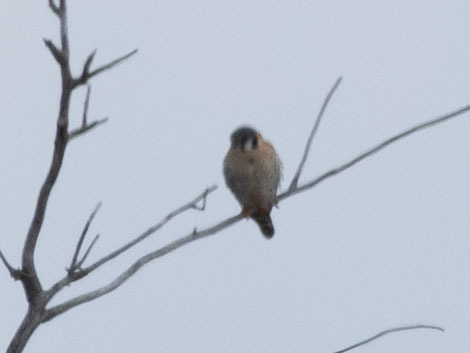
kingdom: Animalia
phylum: Chordata
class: Aves
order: Falconiformes
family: Falconidae
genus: Falco
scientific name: Falco sparverius
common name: American kestrel
